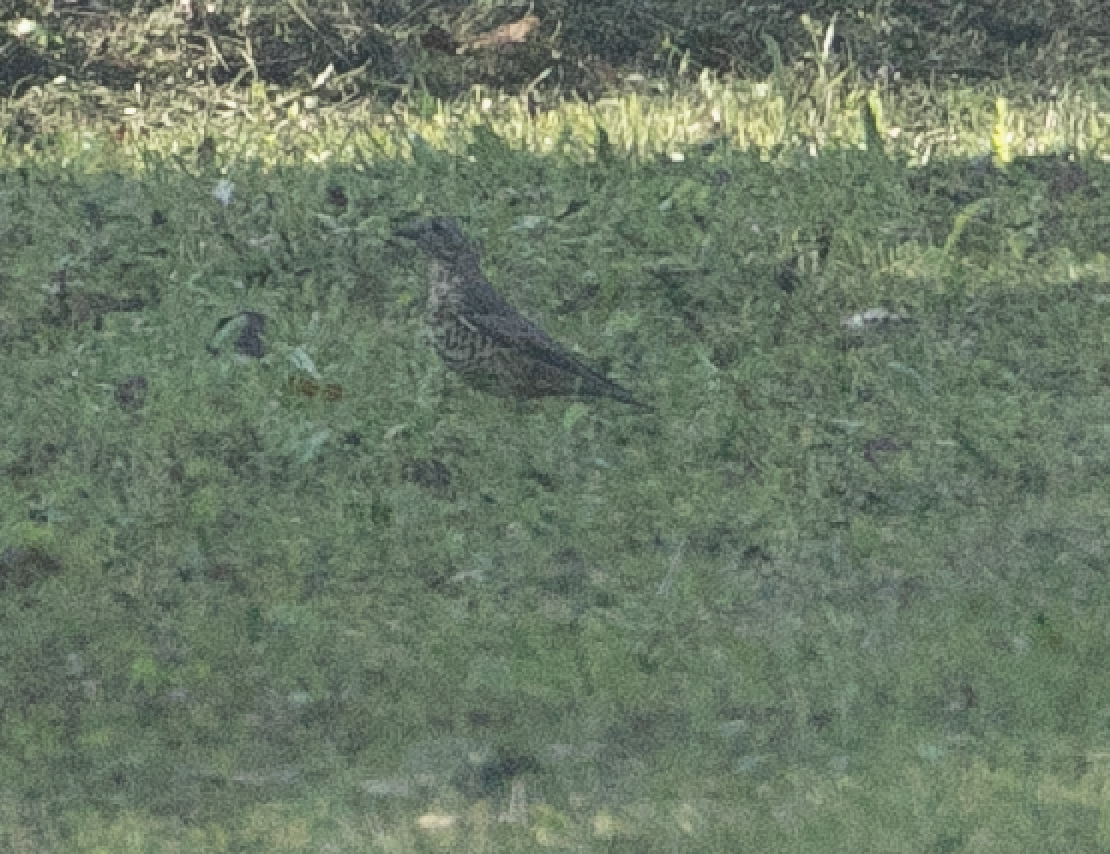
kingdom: Animalia
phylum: Chordata
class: Aves
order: Passeriformes
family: Turdidae
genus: Turdus
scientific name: Turdus viscivorus
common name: Mistle thrush
